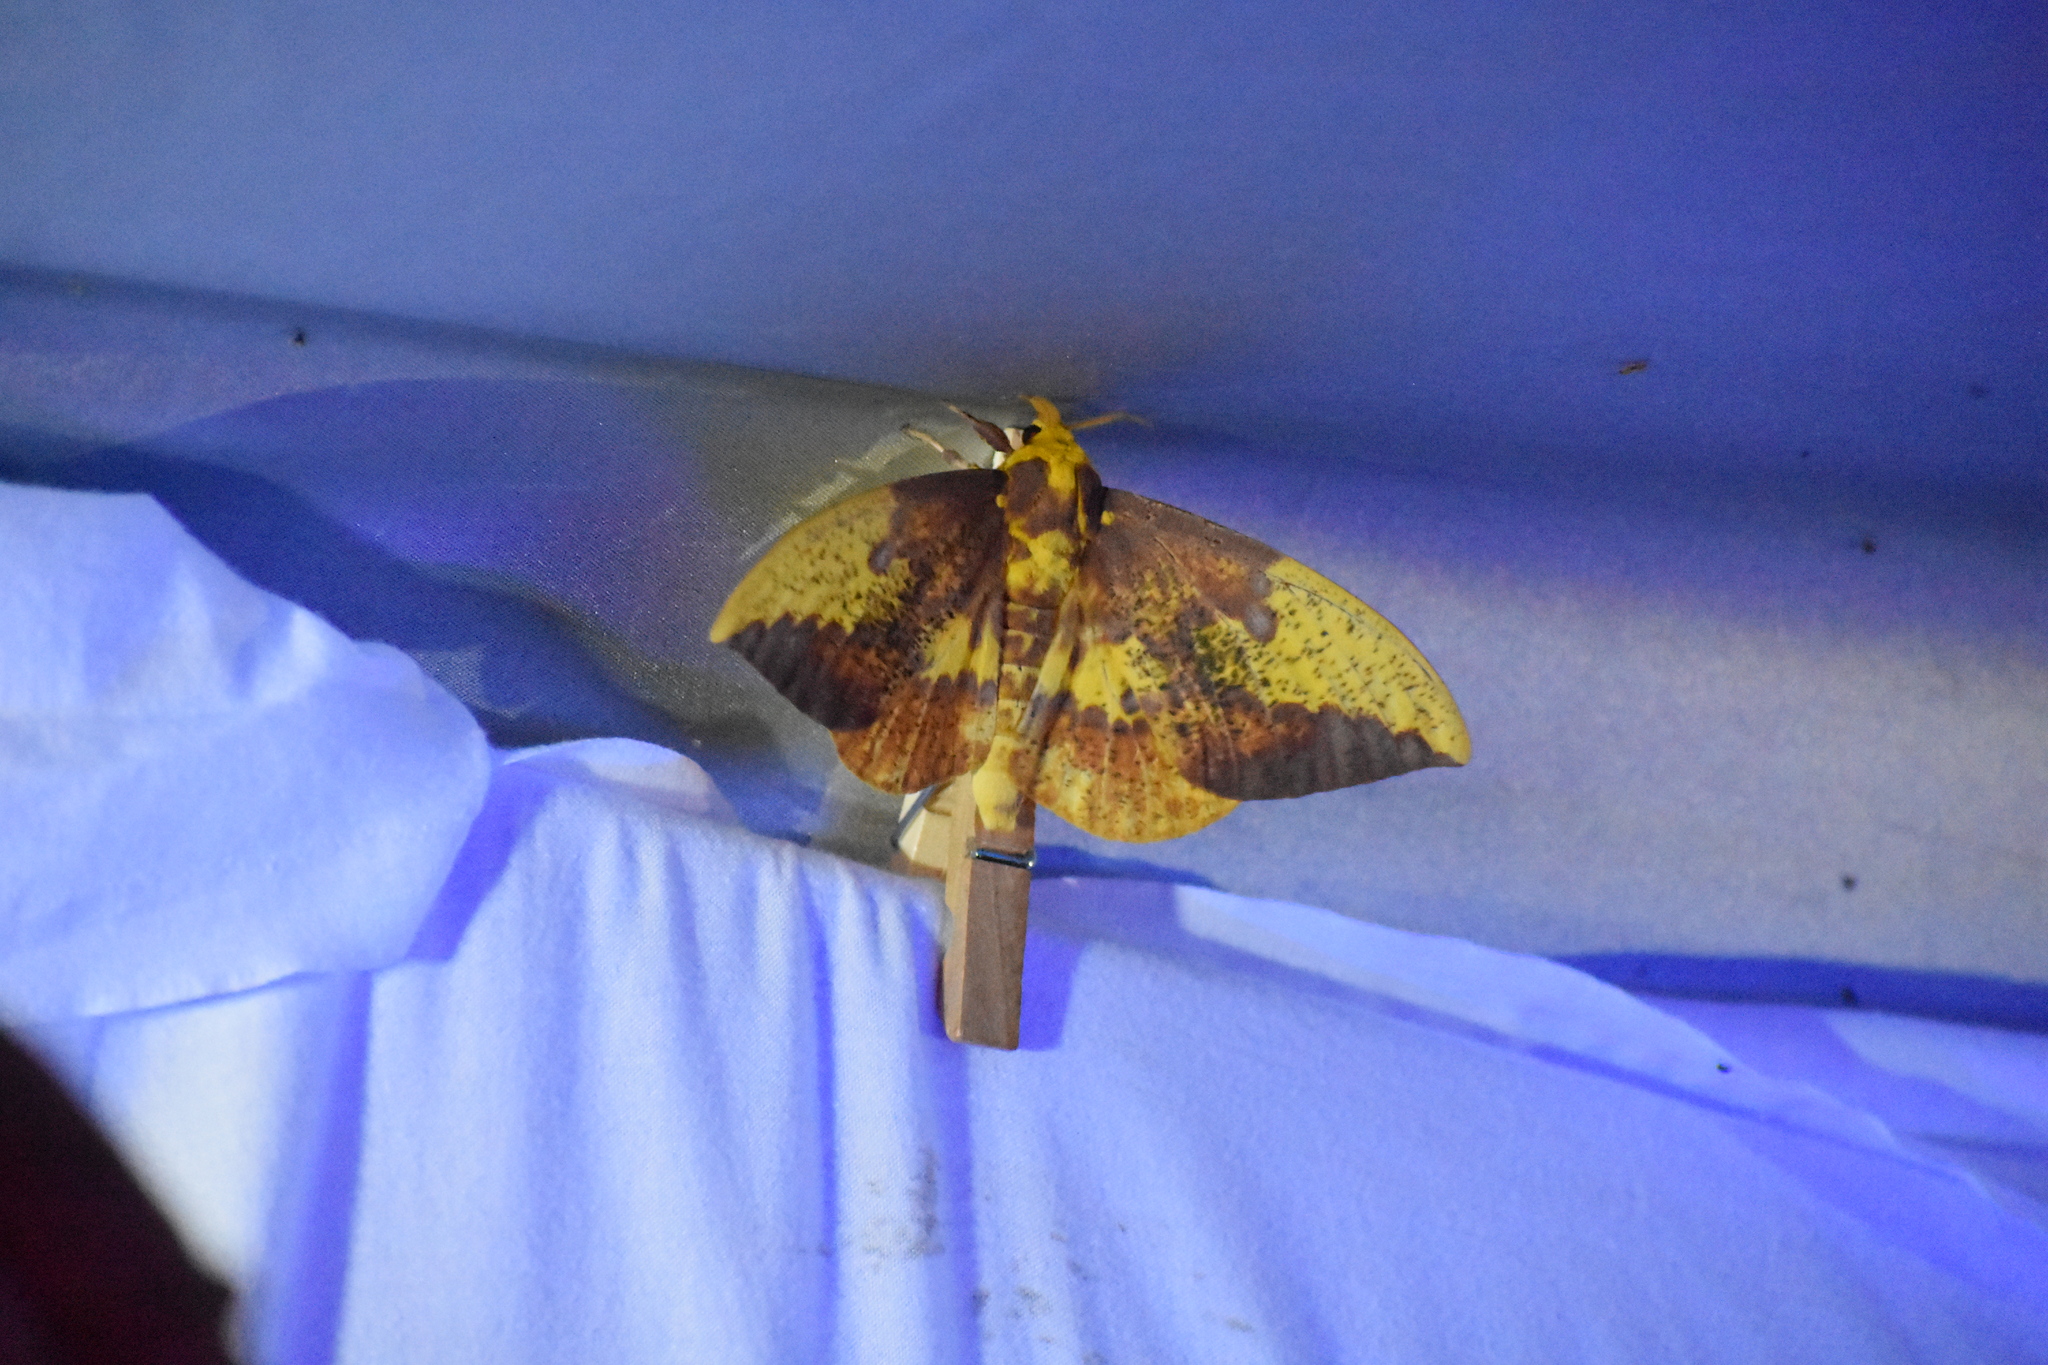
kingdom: Animalia
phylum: Arthropoda
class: Insecta
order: Lepidoptera
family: Saturniidae
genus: Eacles
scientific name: Eacles imperialis
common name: Imperial moth
